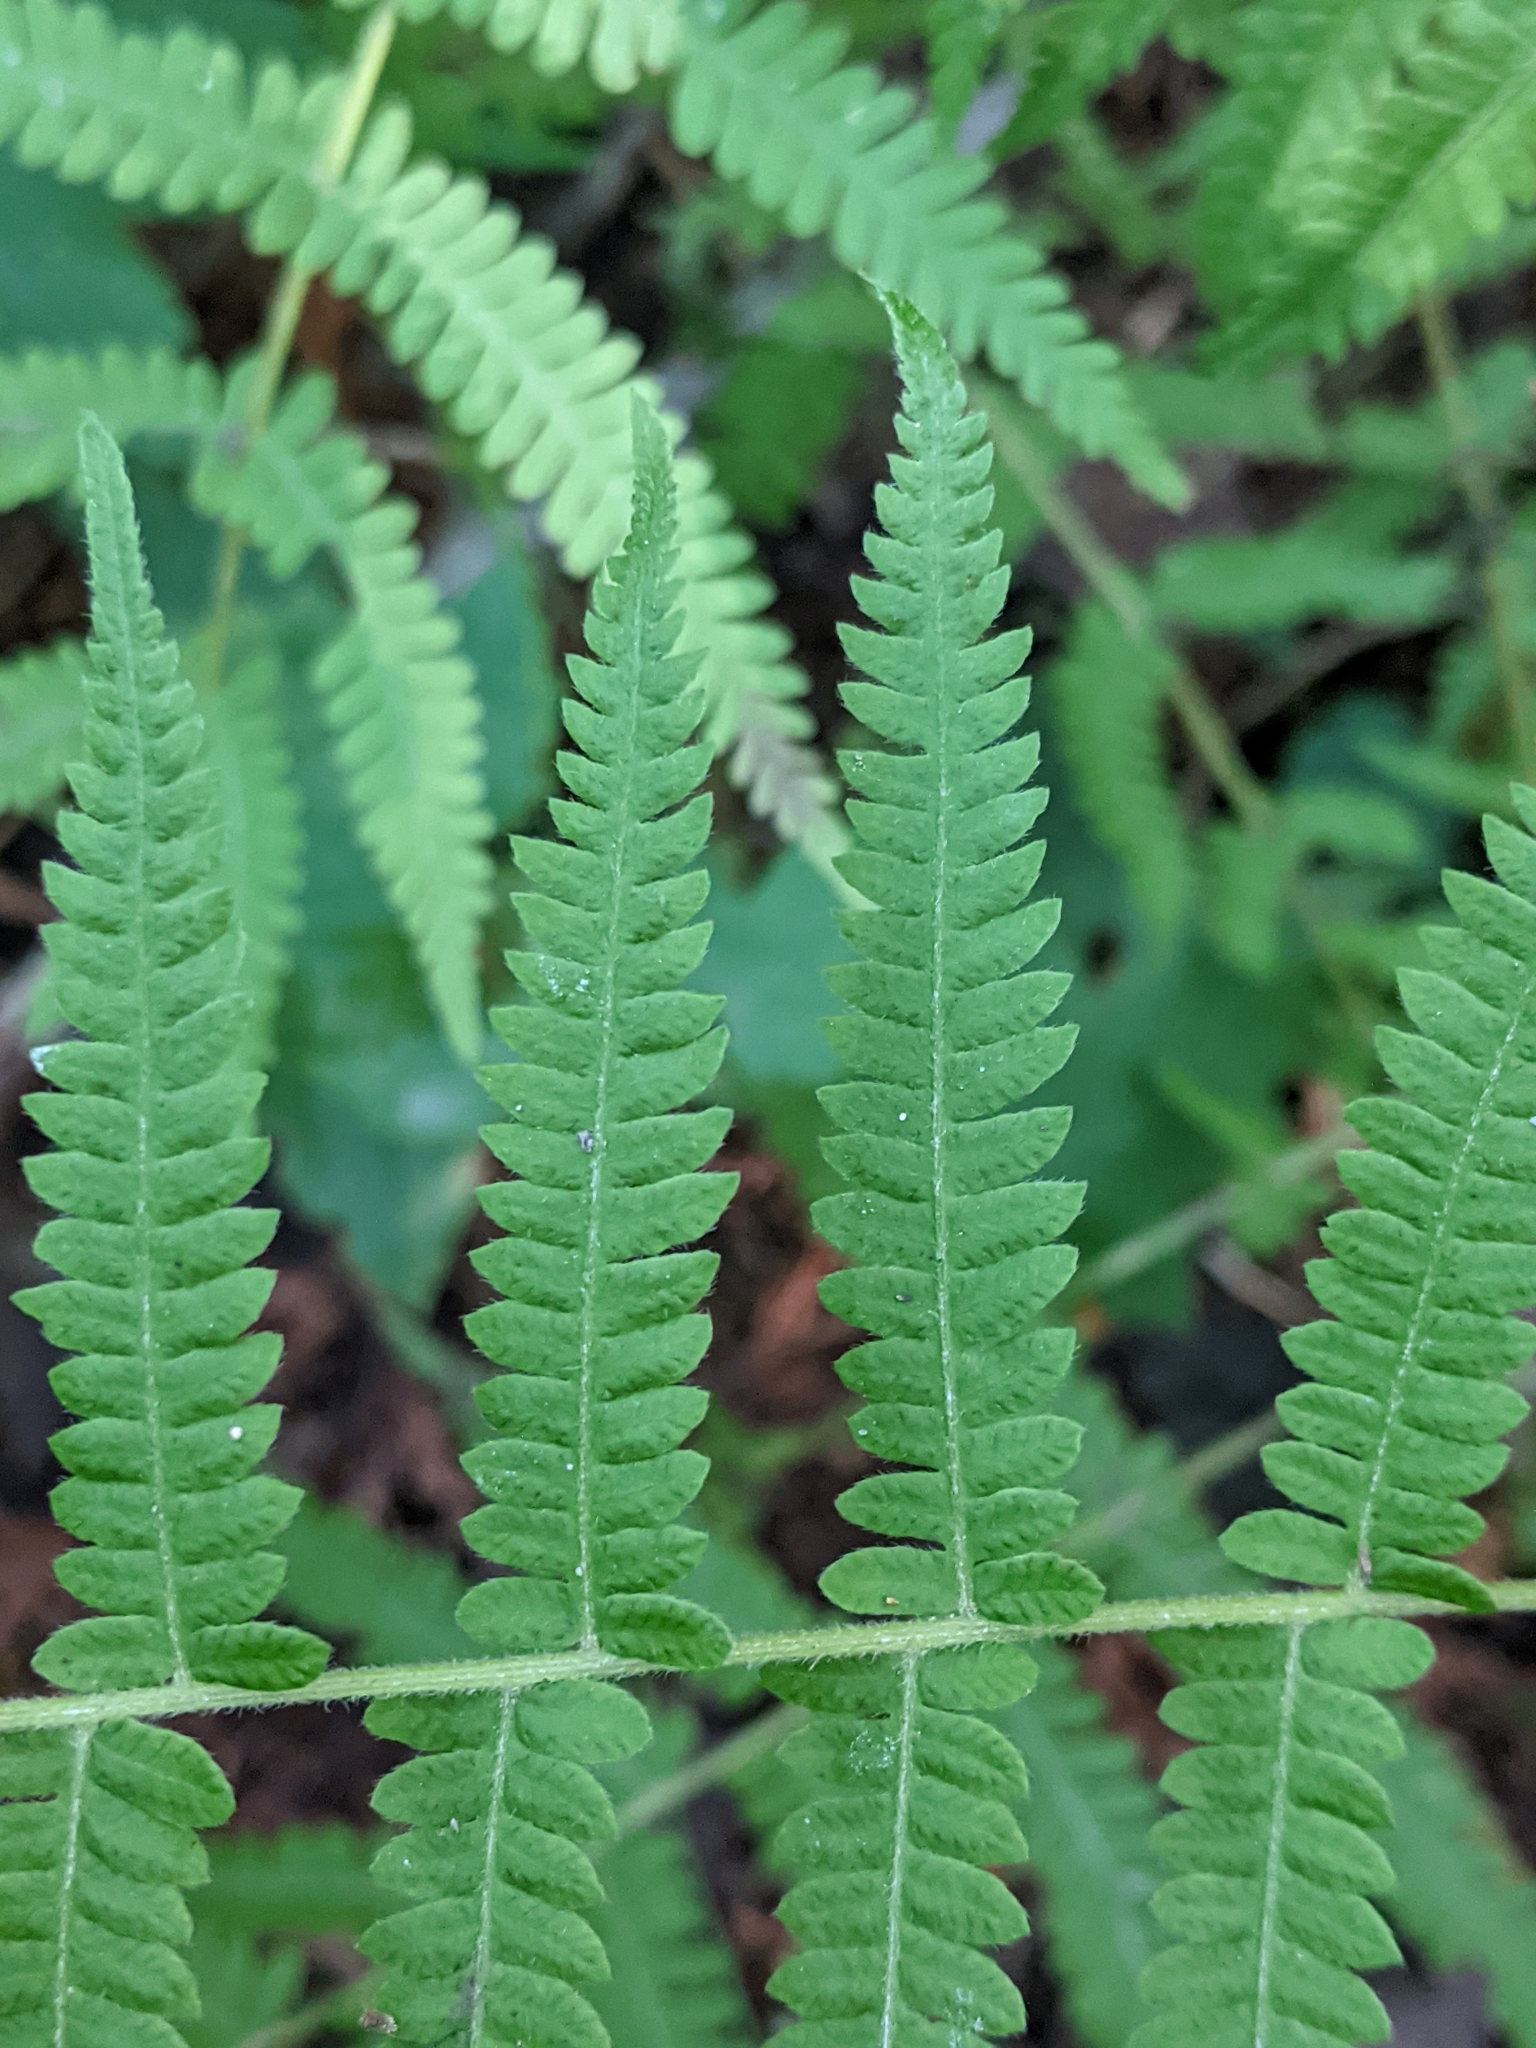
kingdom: Plantae
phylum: Tracheophyta
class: Polypodiopsida
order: Polypodiales
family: Thelypteridaceae
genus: Amauropelta
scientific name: Amauropelta noveboracensis
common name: New york fern
